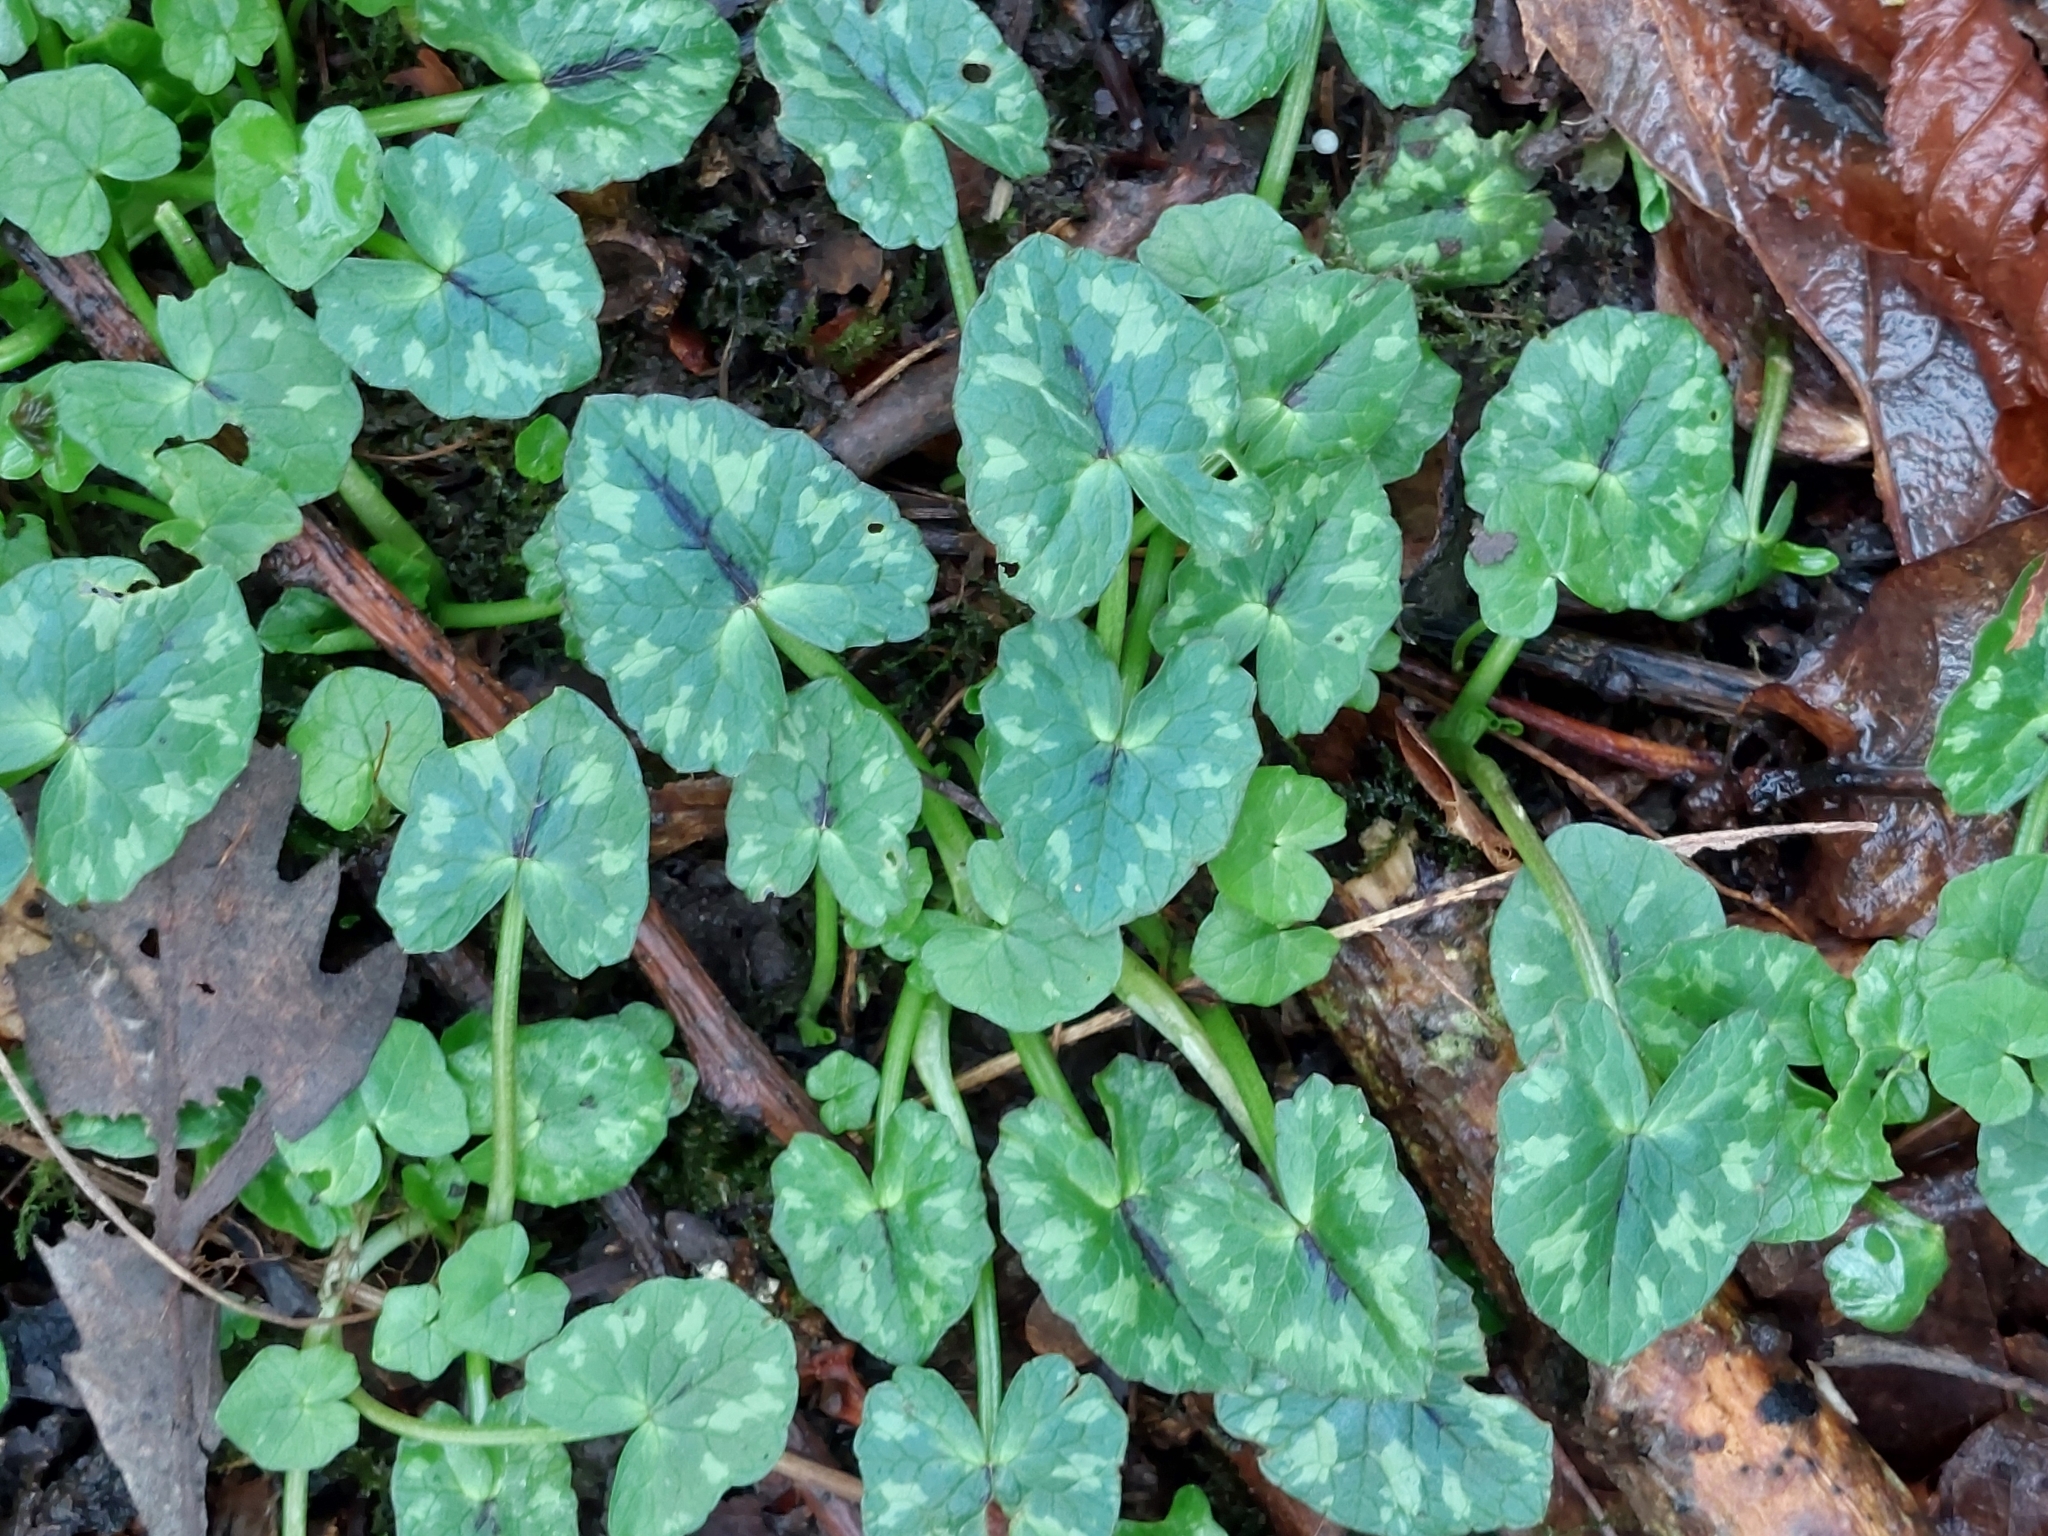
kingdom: Plantae
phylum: Tracheophyta
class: Magnoliopsida
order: Ranunculales
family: Ranunculaceae
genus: Ficaria
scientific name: Ficaria verna
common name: Lesser celandine
